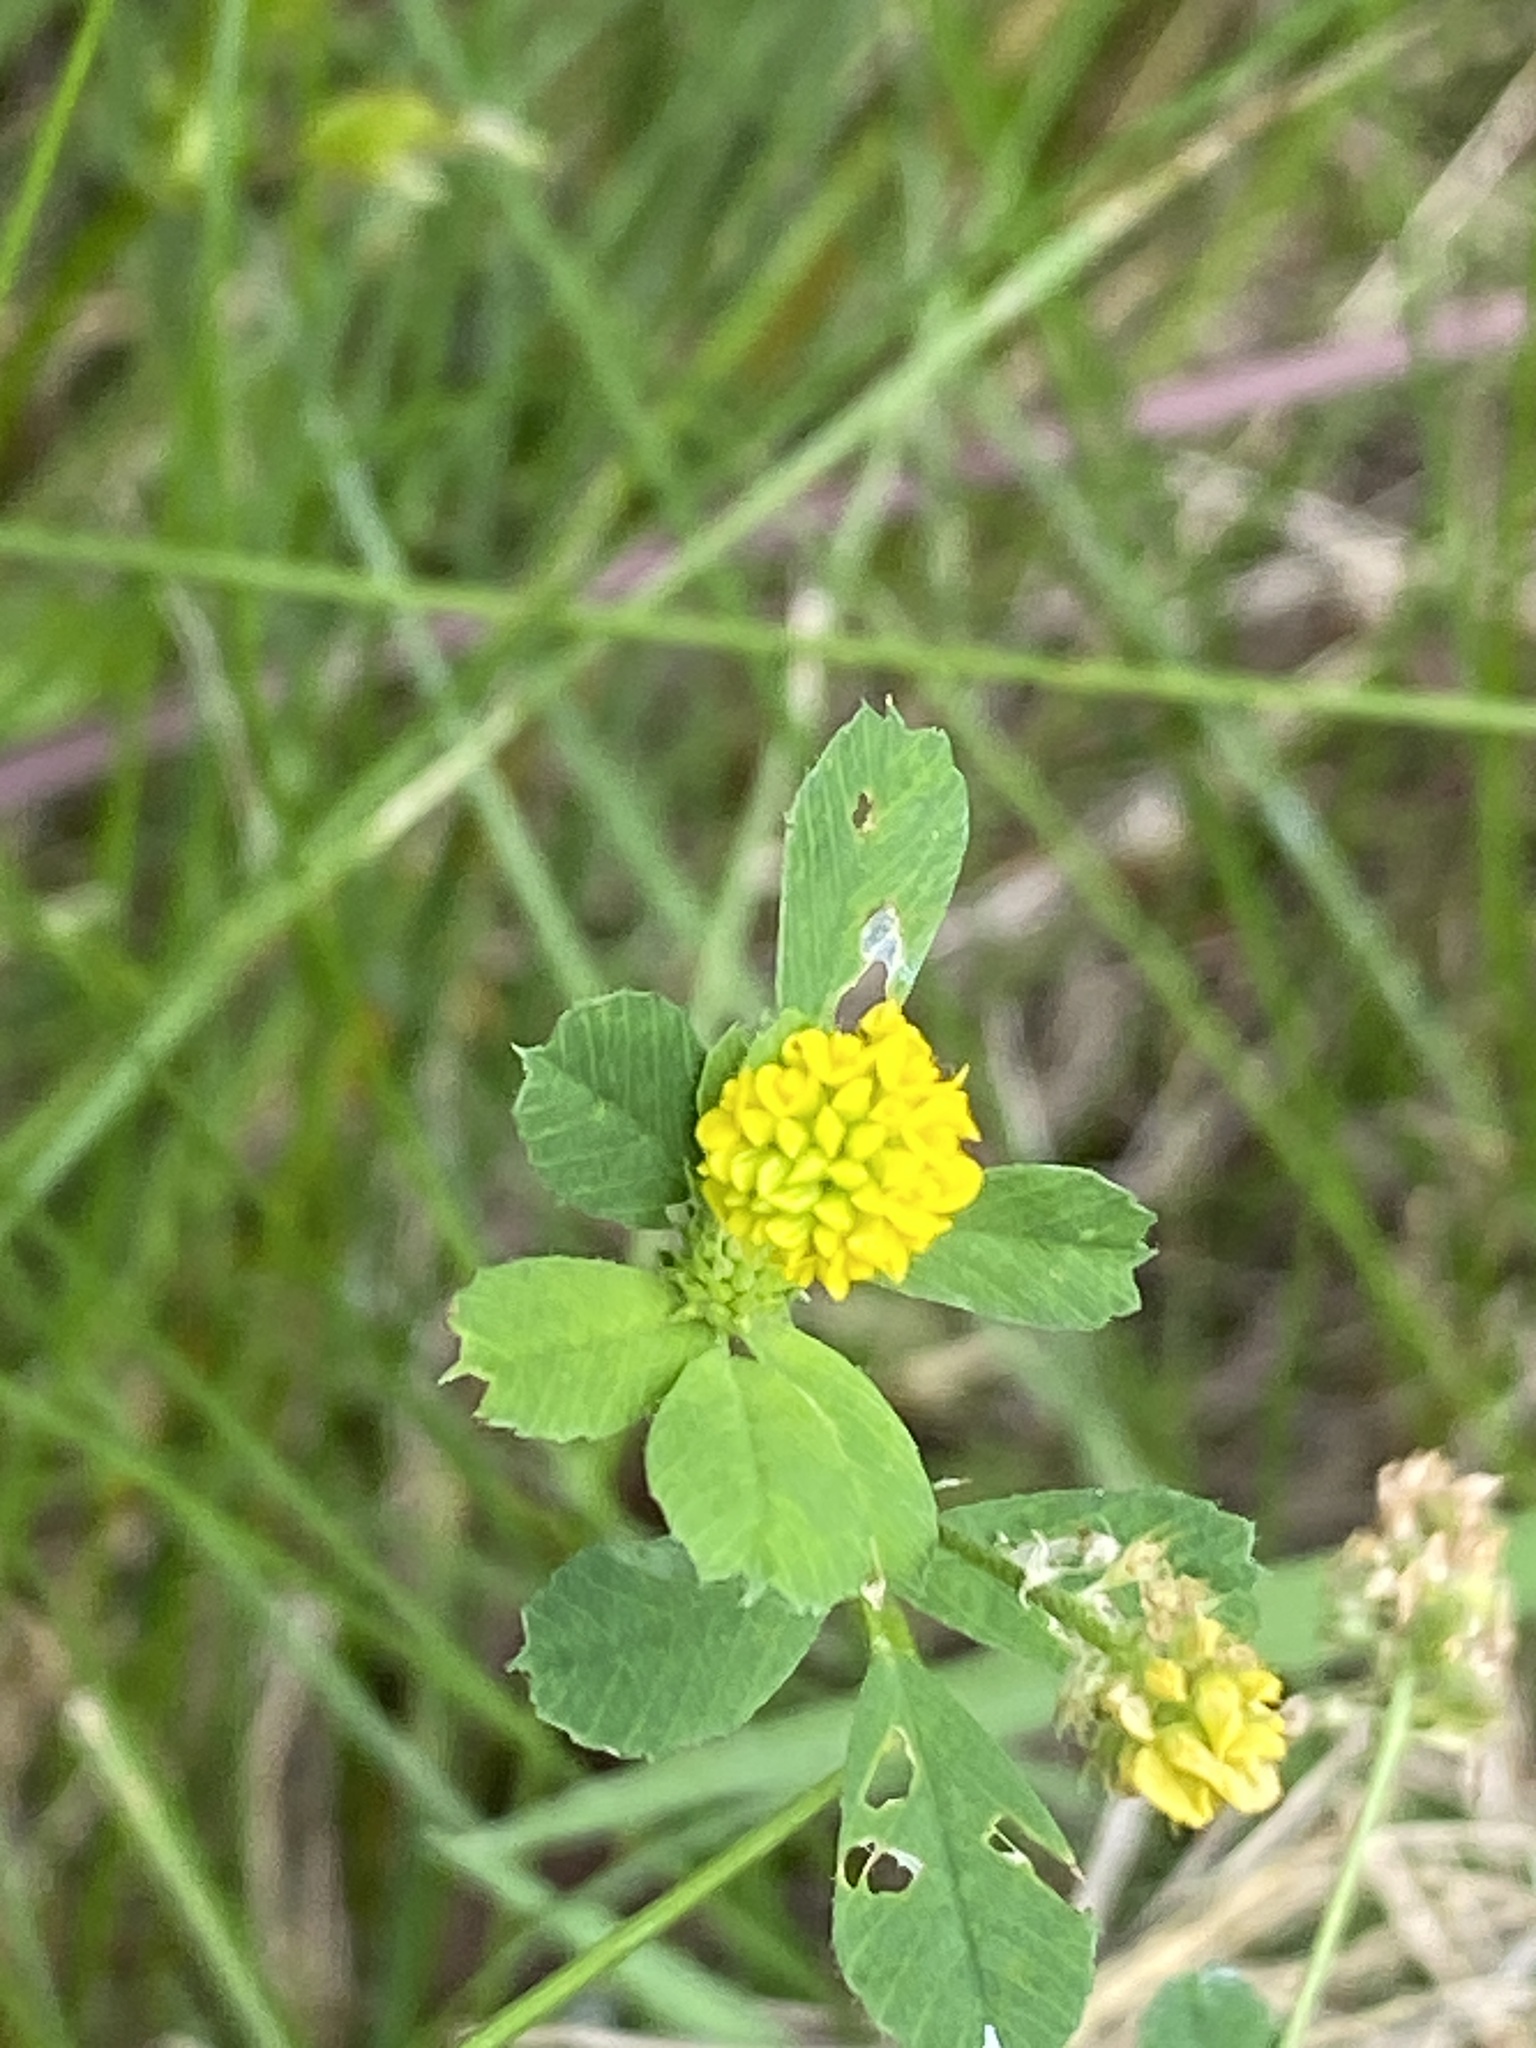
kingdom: Plantae
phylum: Tracheophyta
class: Magnoliopsida
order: Fabales
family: Fabaceae
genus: Medicago
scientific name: Medicago lupulina
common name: Black medick
